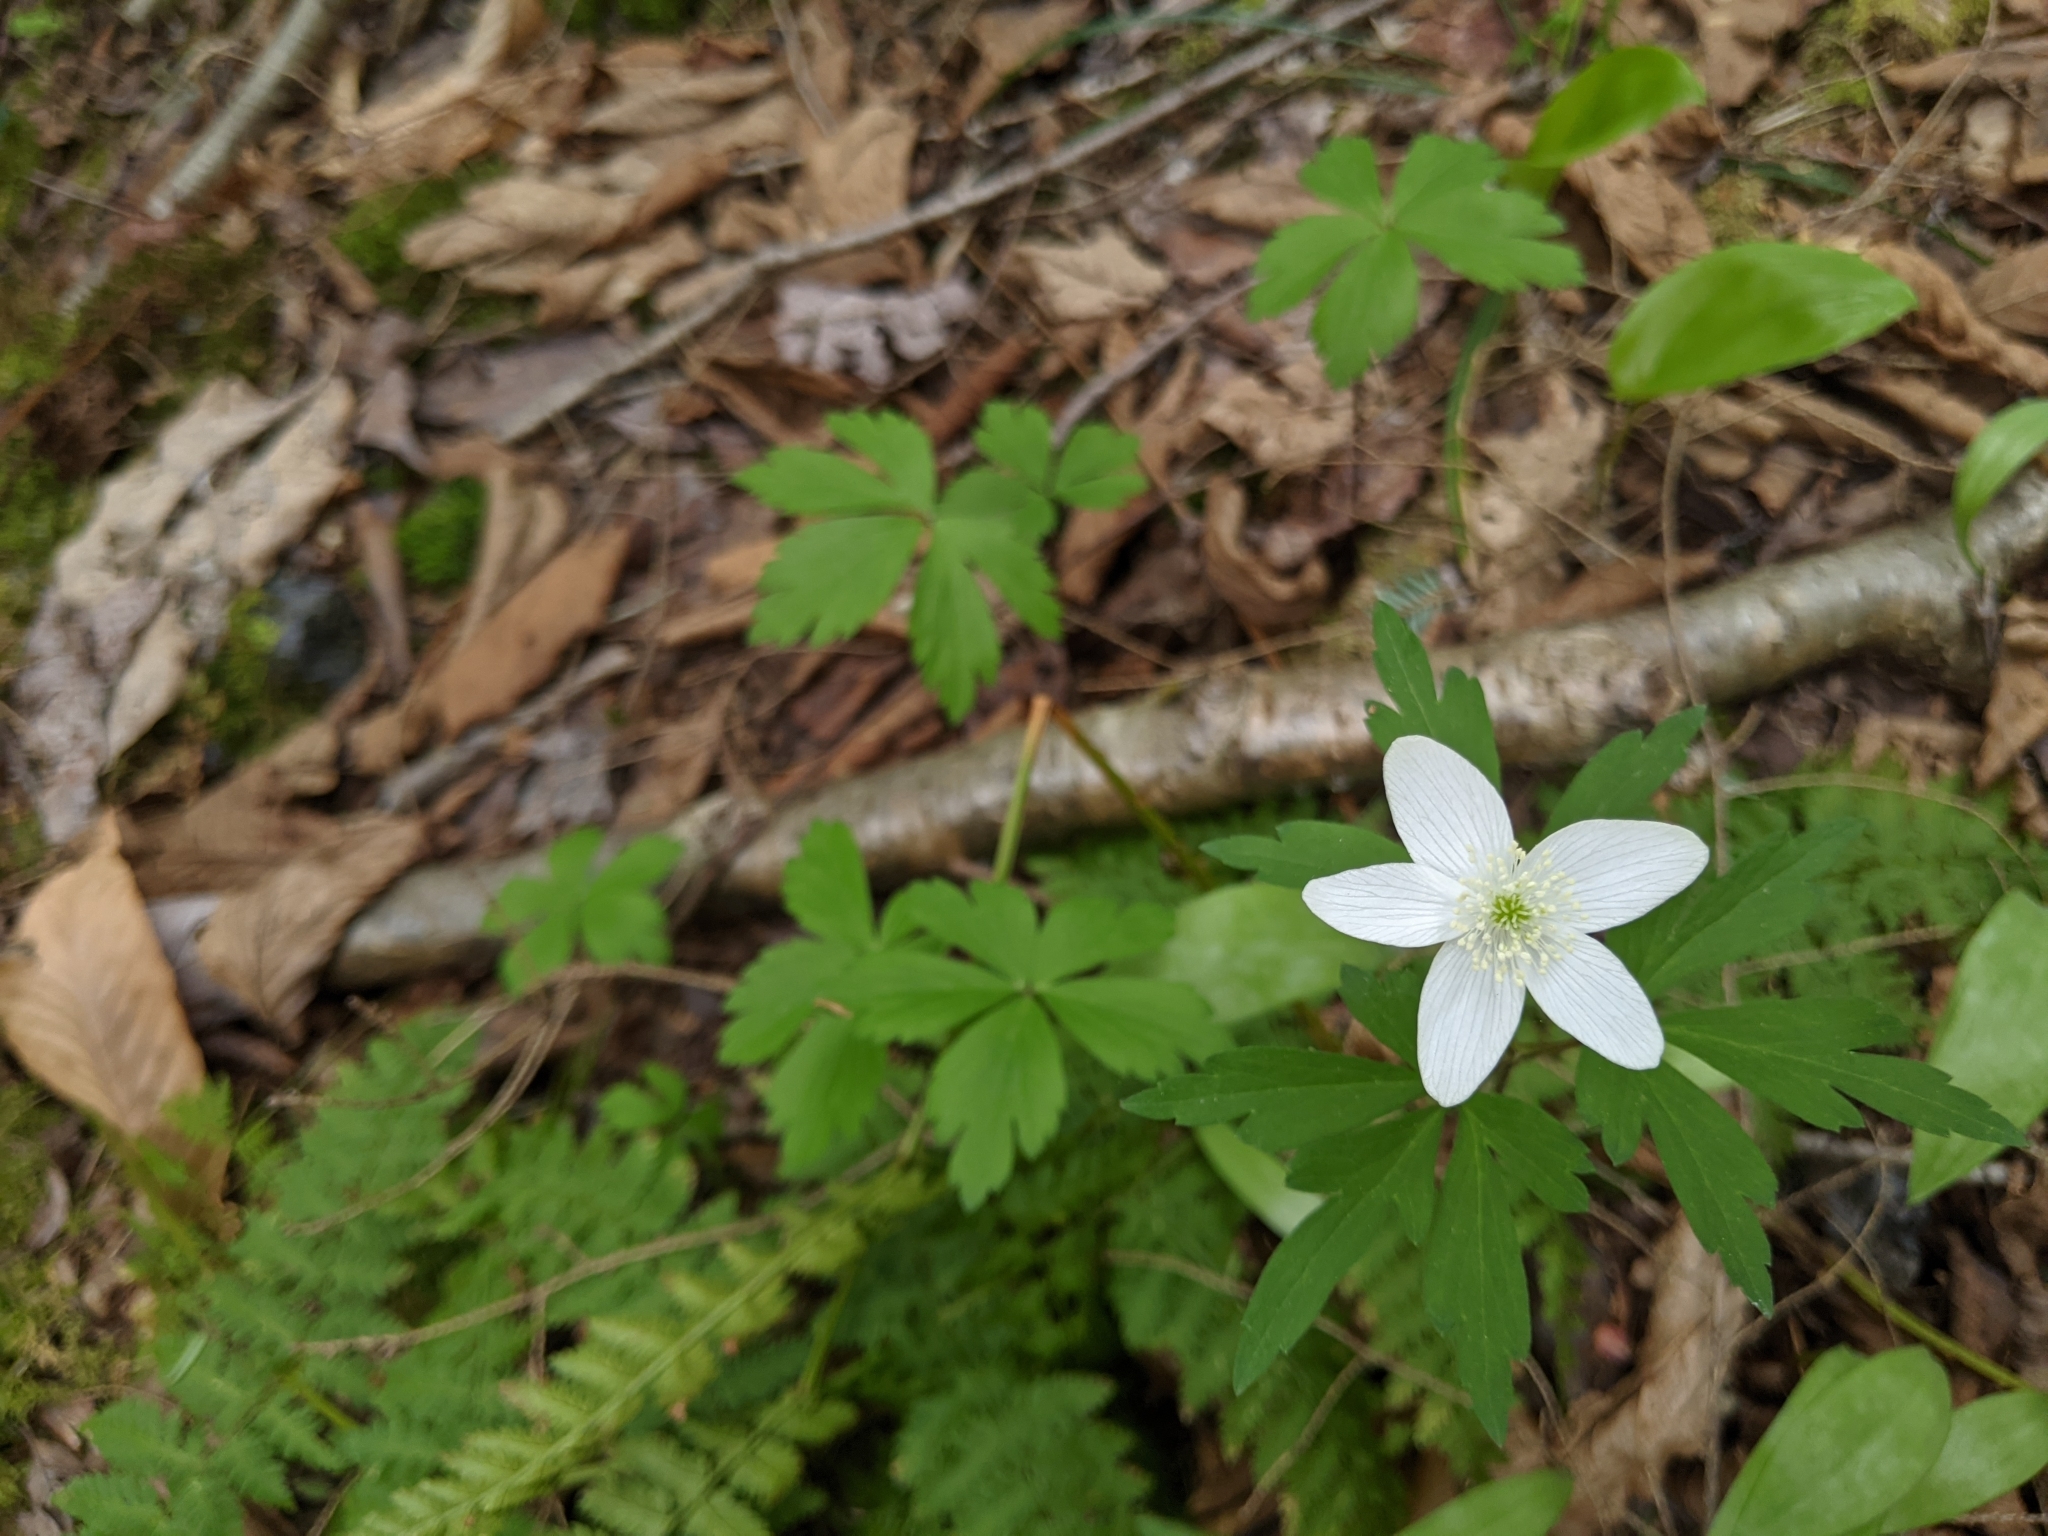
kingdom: Plantae
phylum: Tracheophyta
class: Magnoliopsida
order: Ranunculales
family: Ranunculaceae
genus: Anemone
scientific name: Anemone quinquefolia
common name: Wood anemone
